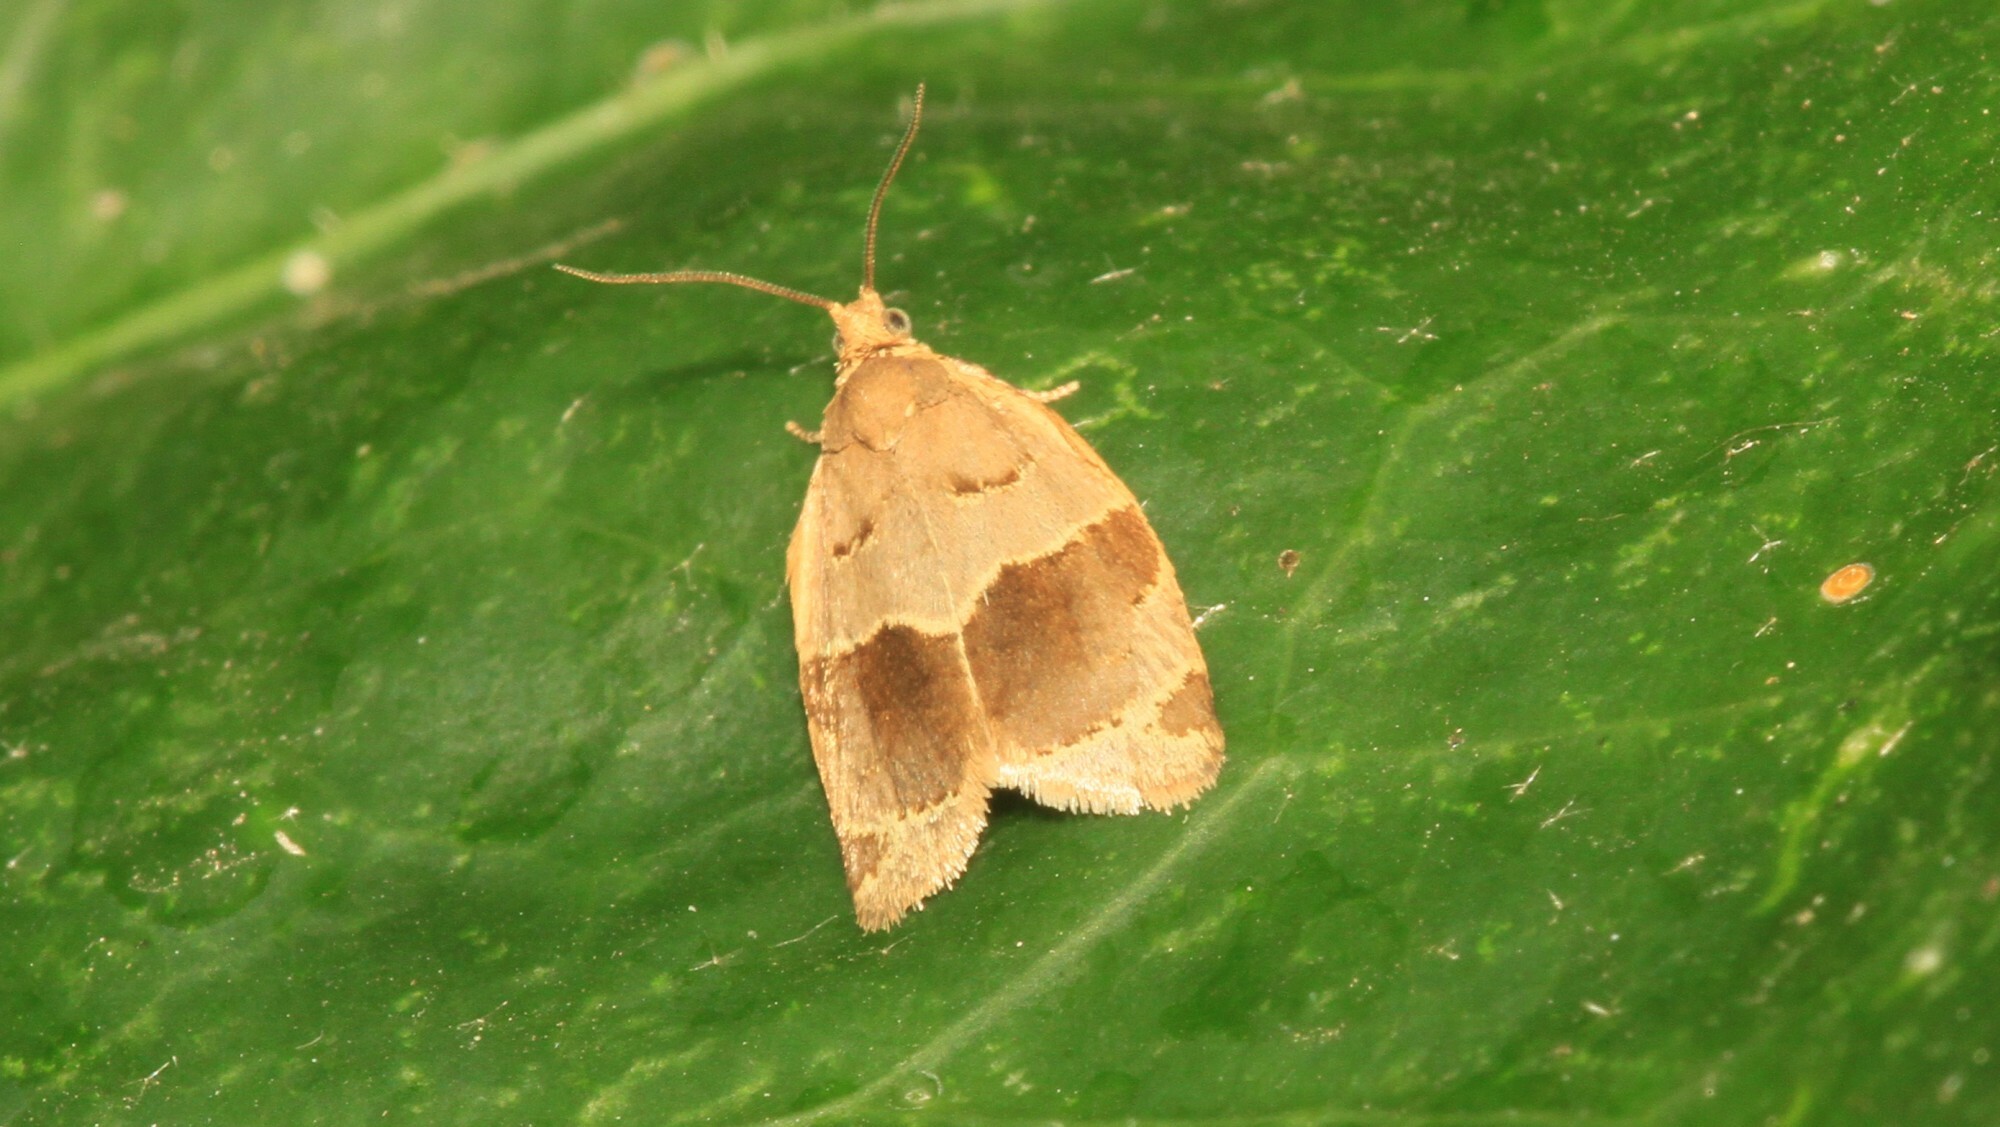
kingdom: Animalia
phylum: Arthropoda
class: Insecta
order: Lepidoptera
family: Tortricidae
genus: Clepsis
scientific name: Clepsis dumicolana
